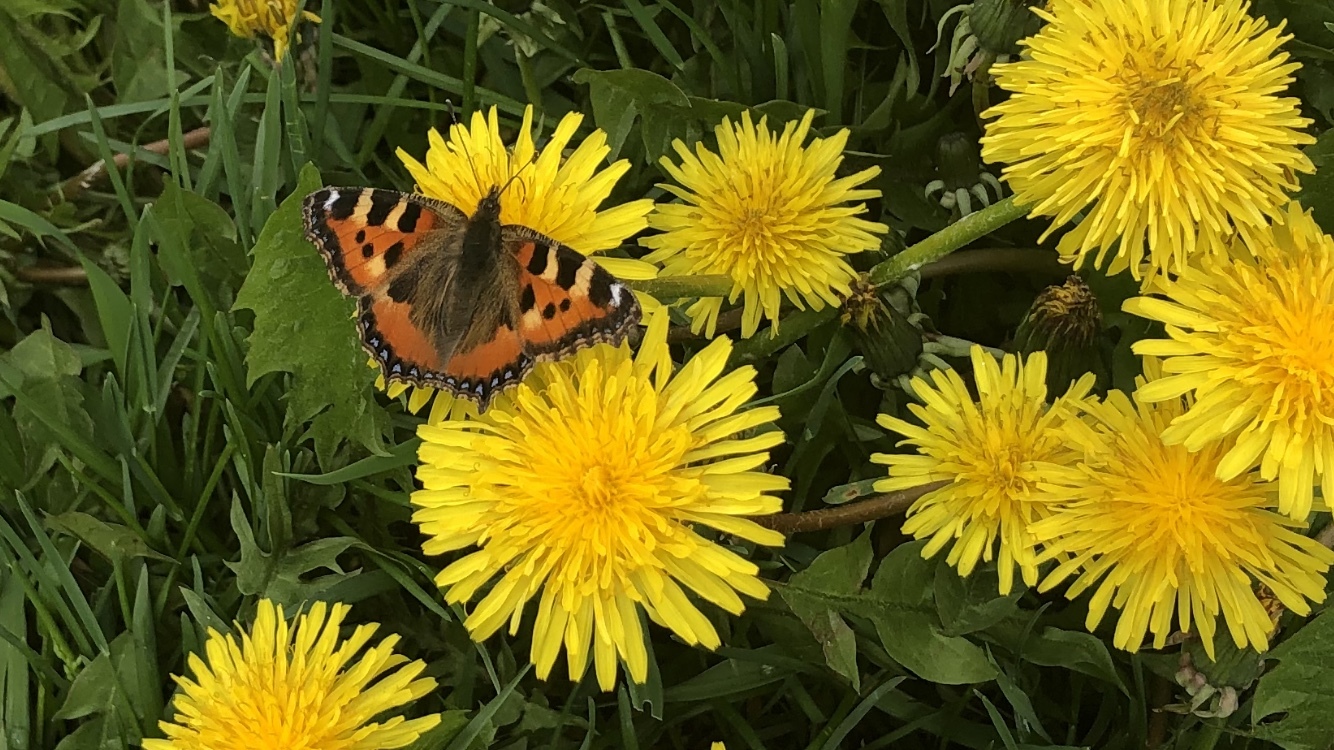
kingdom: Animalia
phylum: Arthropoda
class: Insecta
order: Lepidoptera
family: Nymphalidae
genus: Aglais
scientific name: Aglais urticae
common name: Small tortoiseshell
